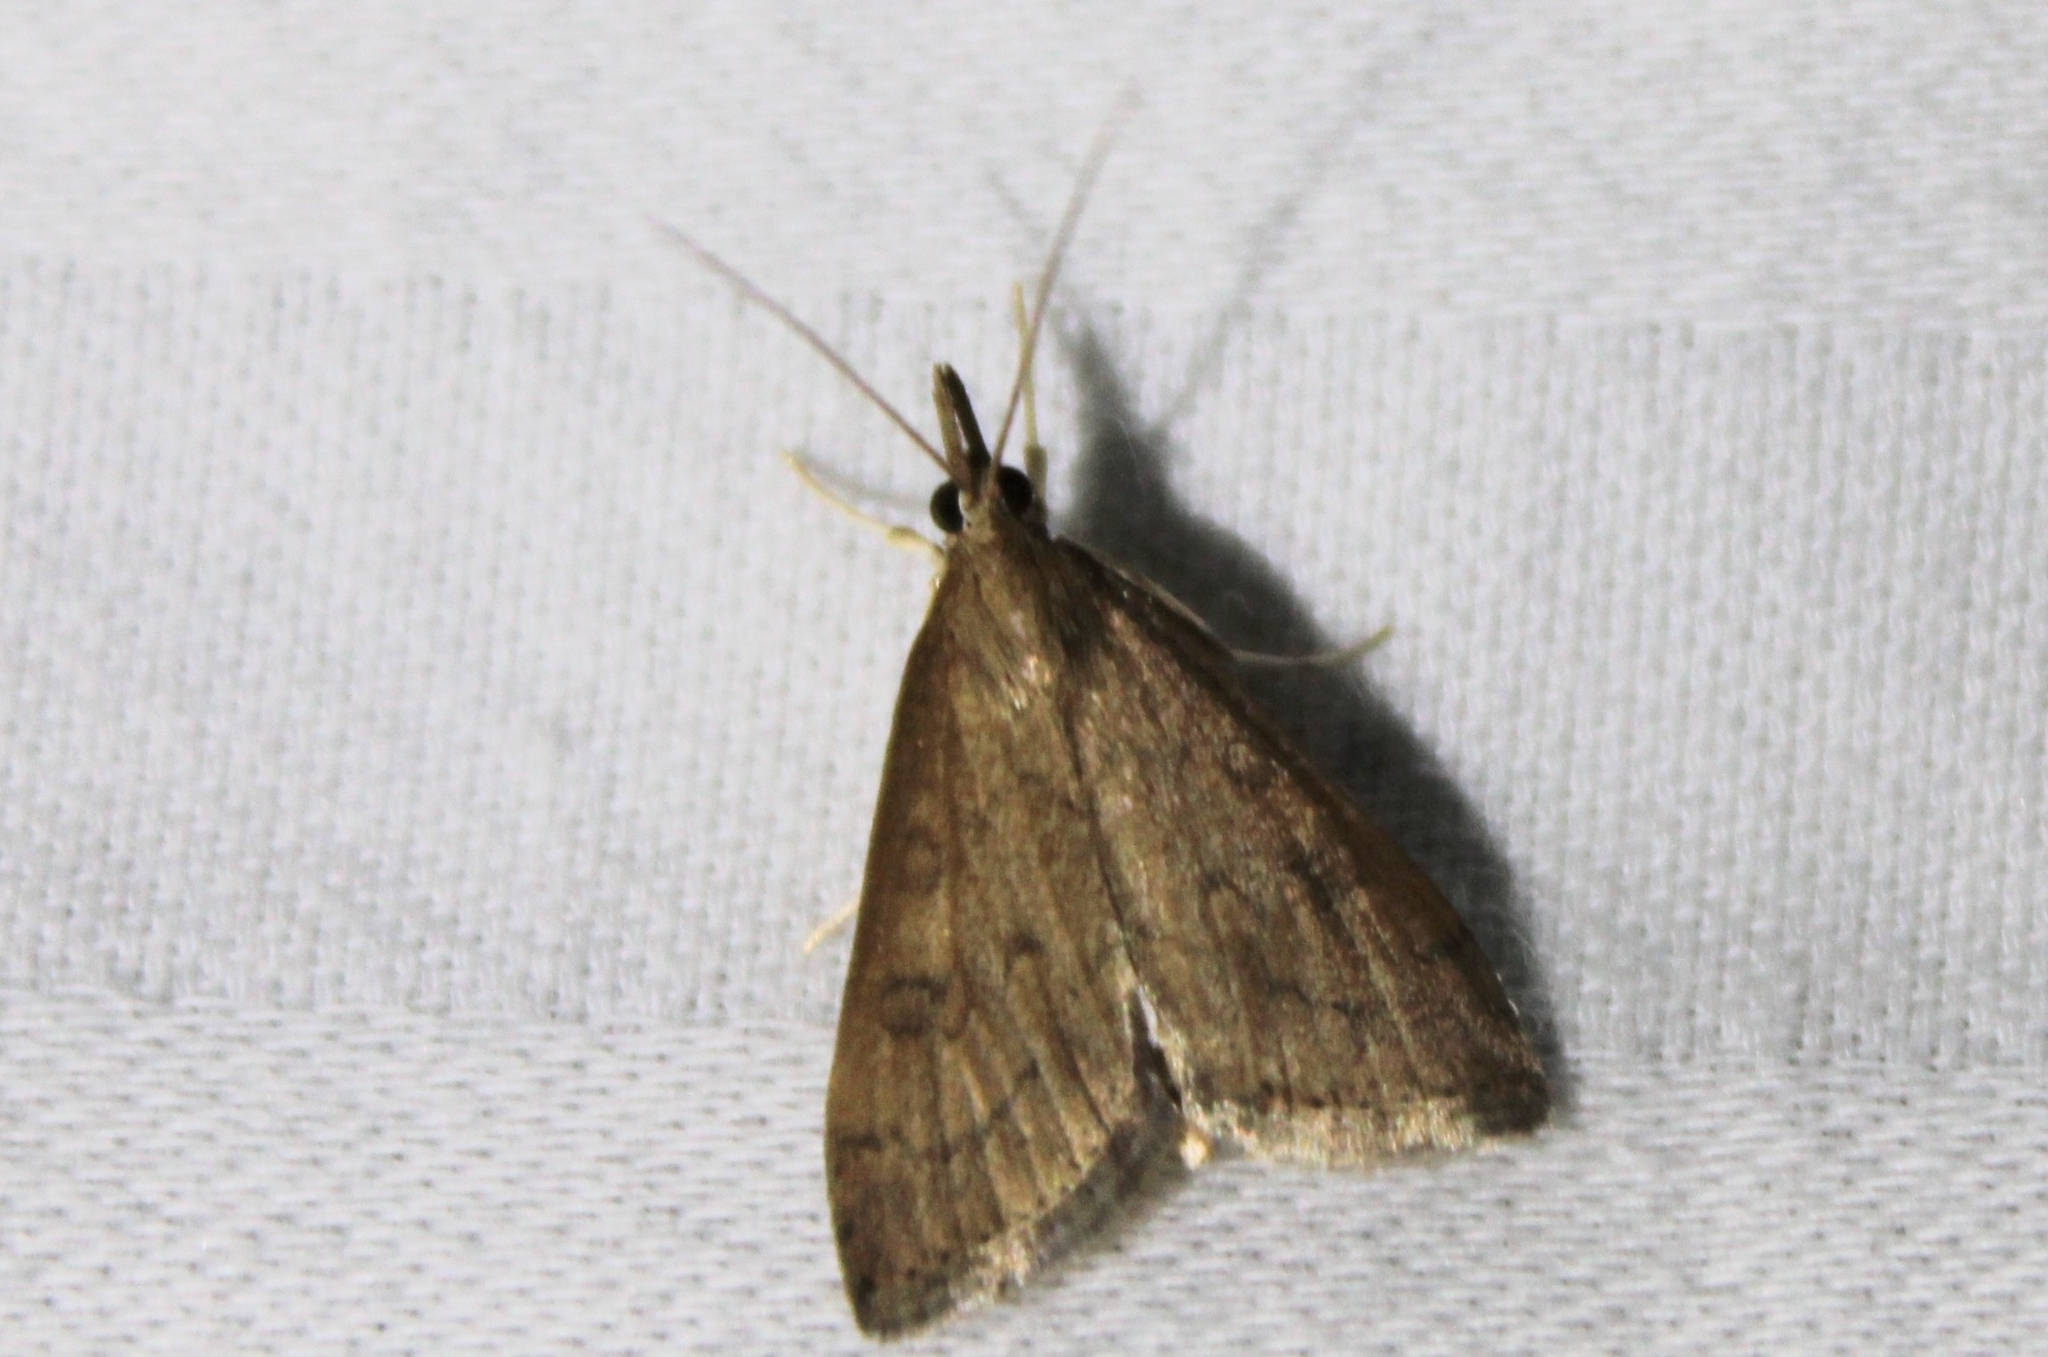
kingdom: Animalia
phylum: Arthropoda
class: Insecta
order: Lepidoptera
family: Crambidae
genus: Udea
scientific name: Udea rubigalis
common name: Celery leaftier moth
